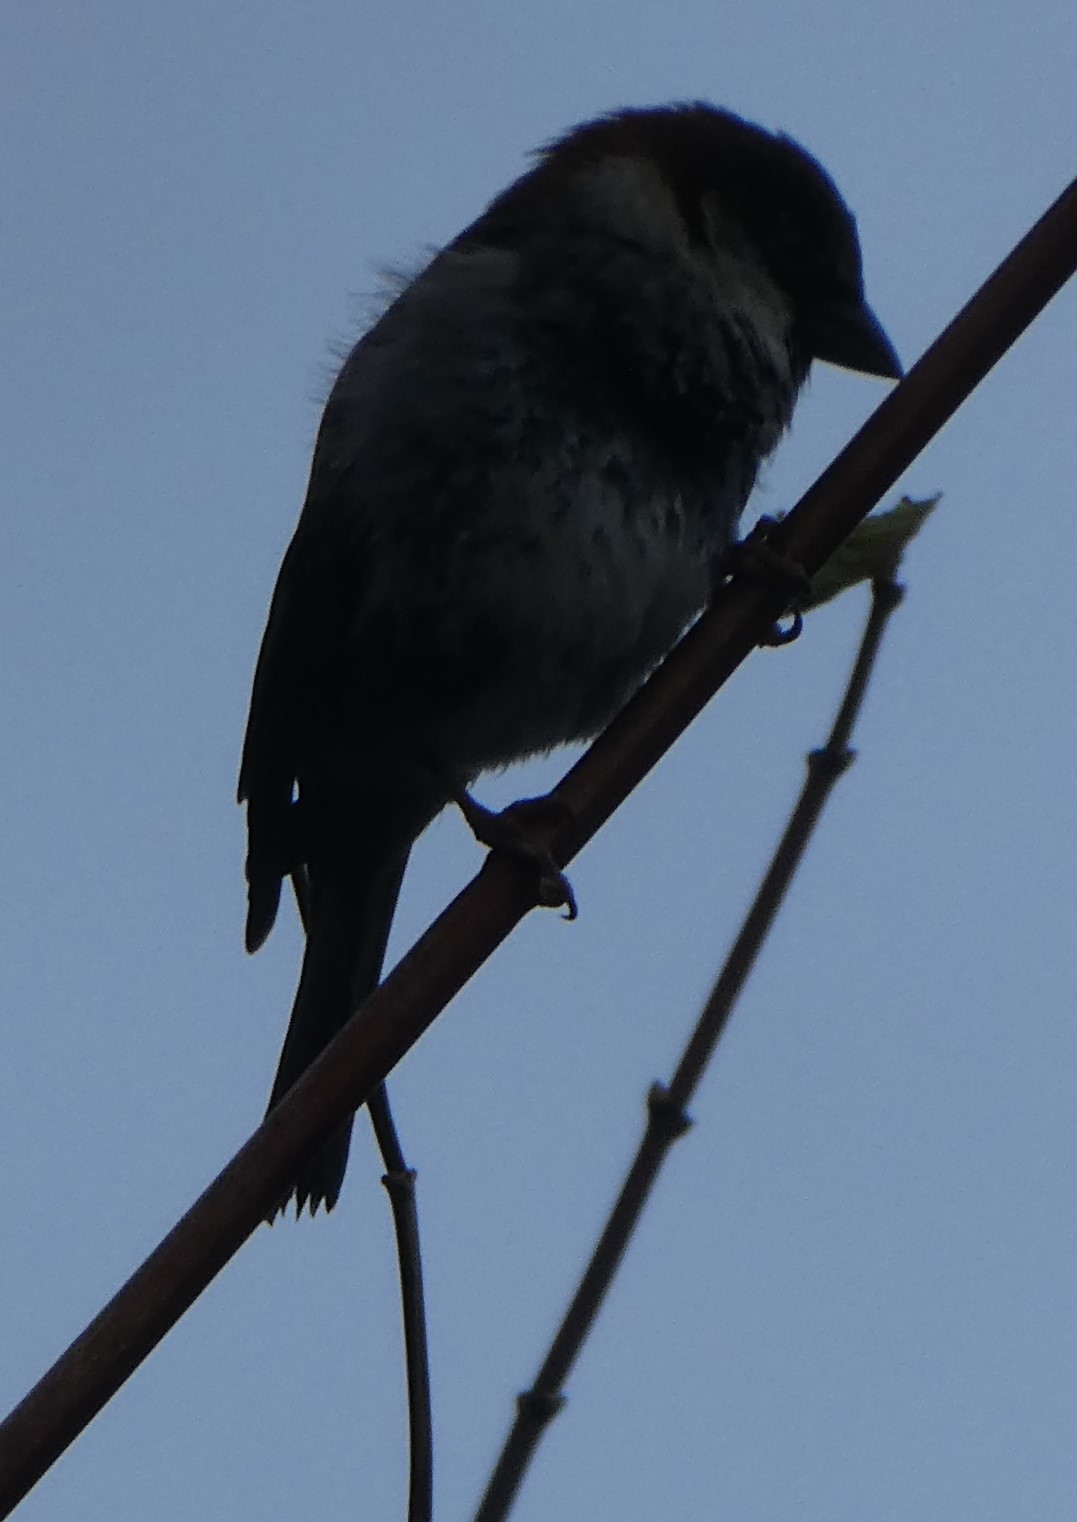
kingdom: Animalia
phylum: Chordata
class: Aves
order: Passeriformes
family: Passeridae
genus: Passer
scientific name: Passer domesticus
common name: House sparrow
